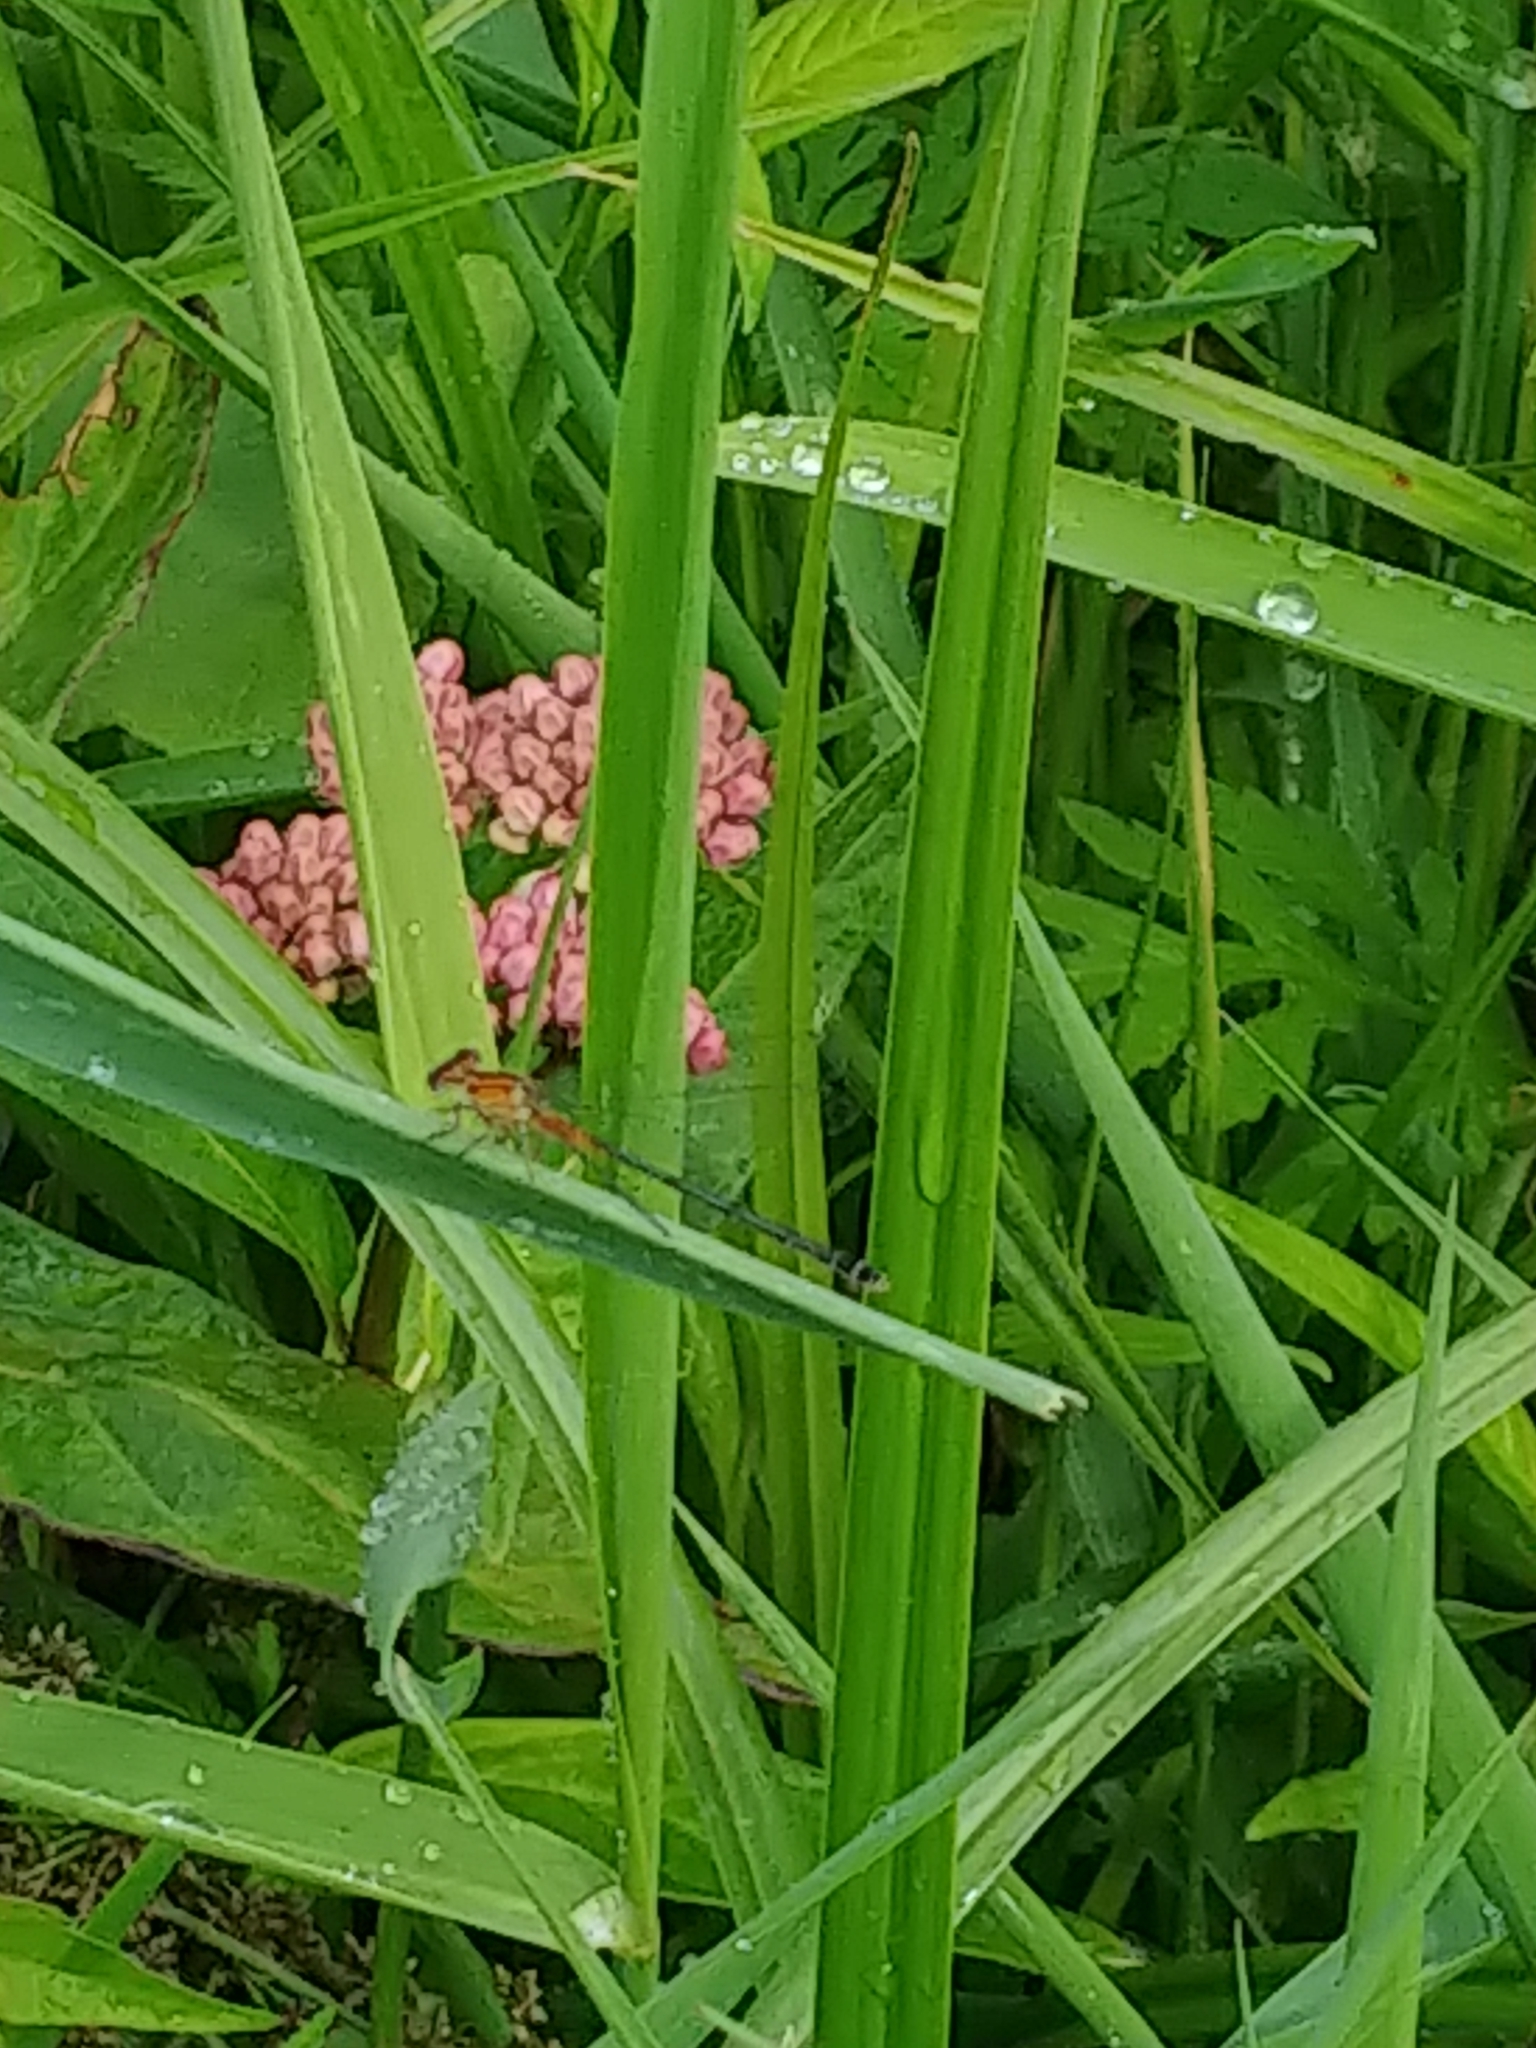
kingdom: Animalia
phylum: Arthropoda
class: Insecta
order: Odonata
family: Coenagrionidae
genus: Ischnura
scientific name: Ischnura verticalis
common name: Eastern forktail
